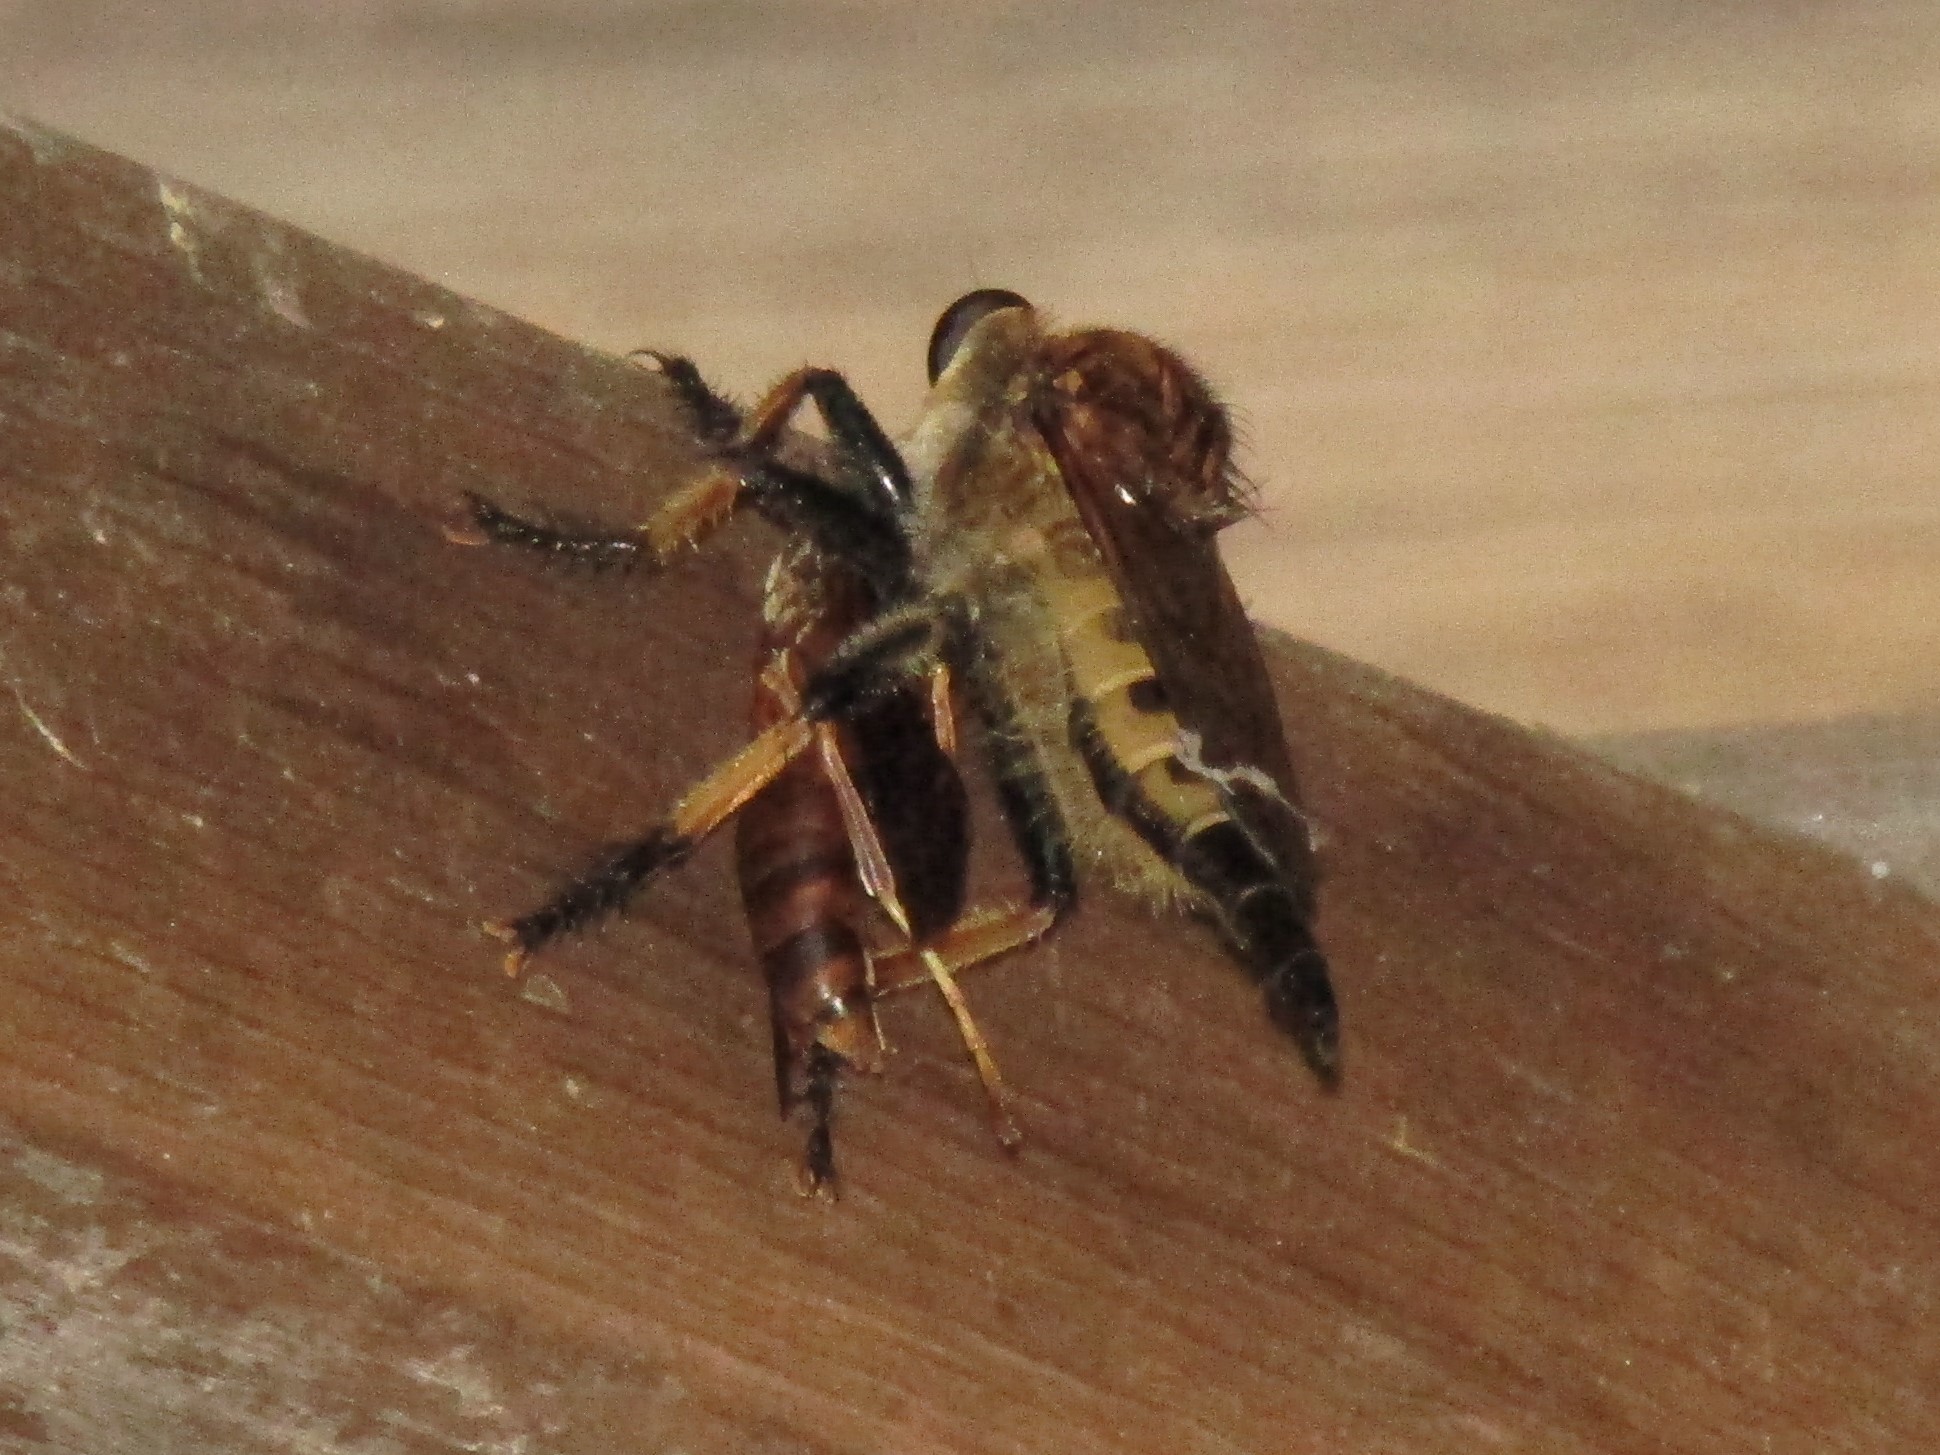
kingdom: Animalia
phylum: Arthropoda
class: Insecta
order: Diptera
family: Asilidae
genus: Promachus
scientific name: Promachus rufipes
